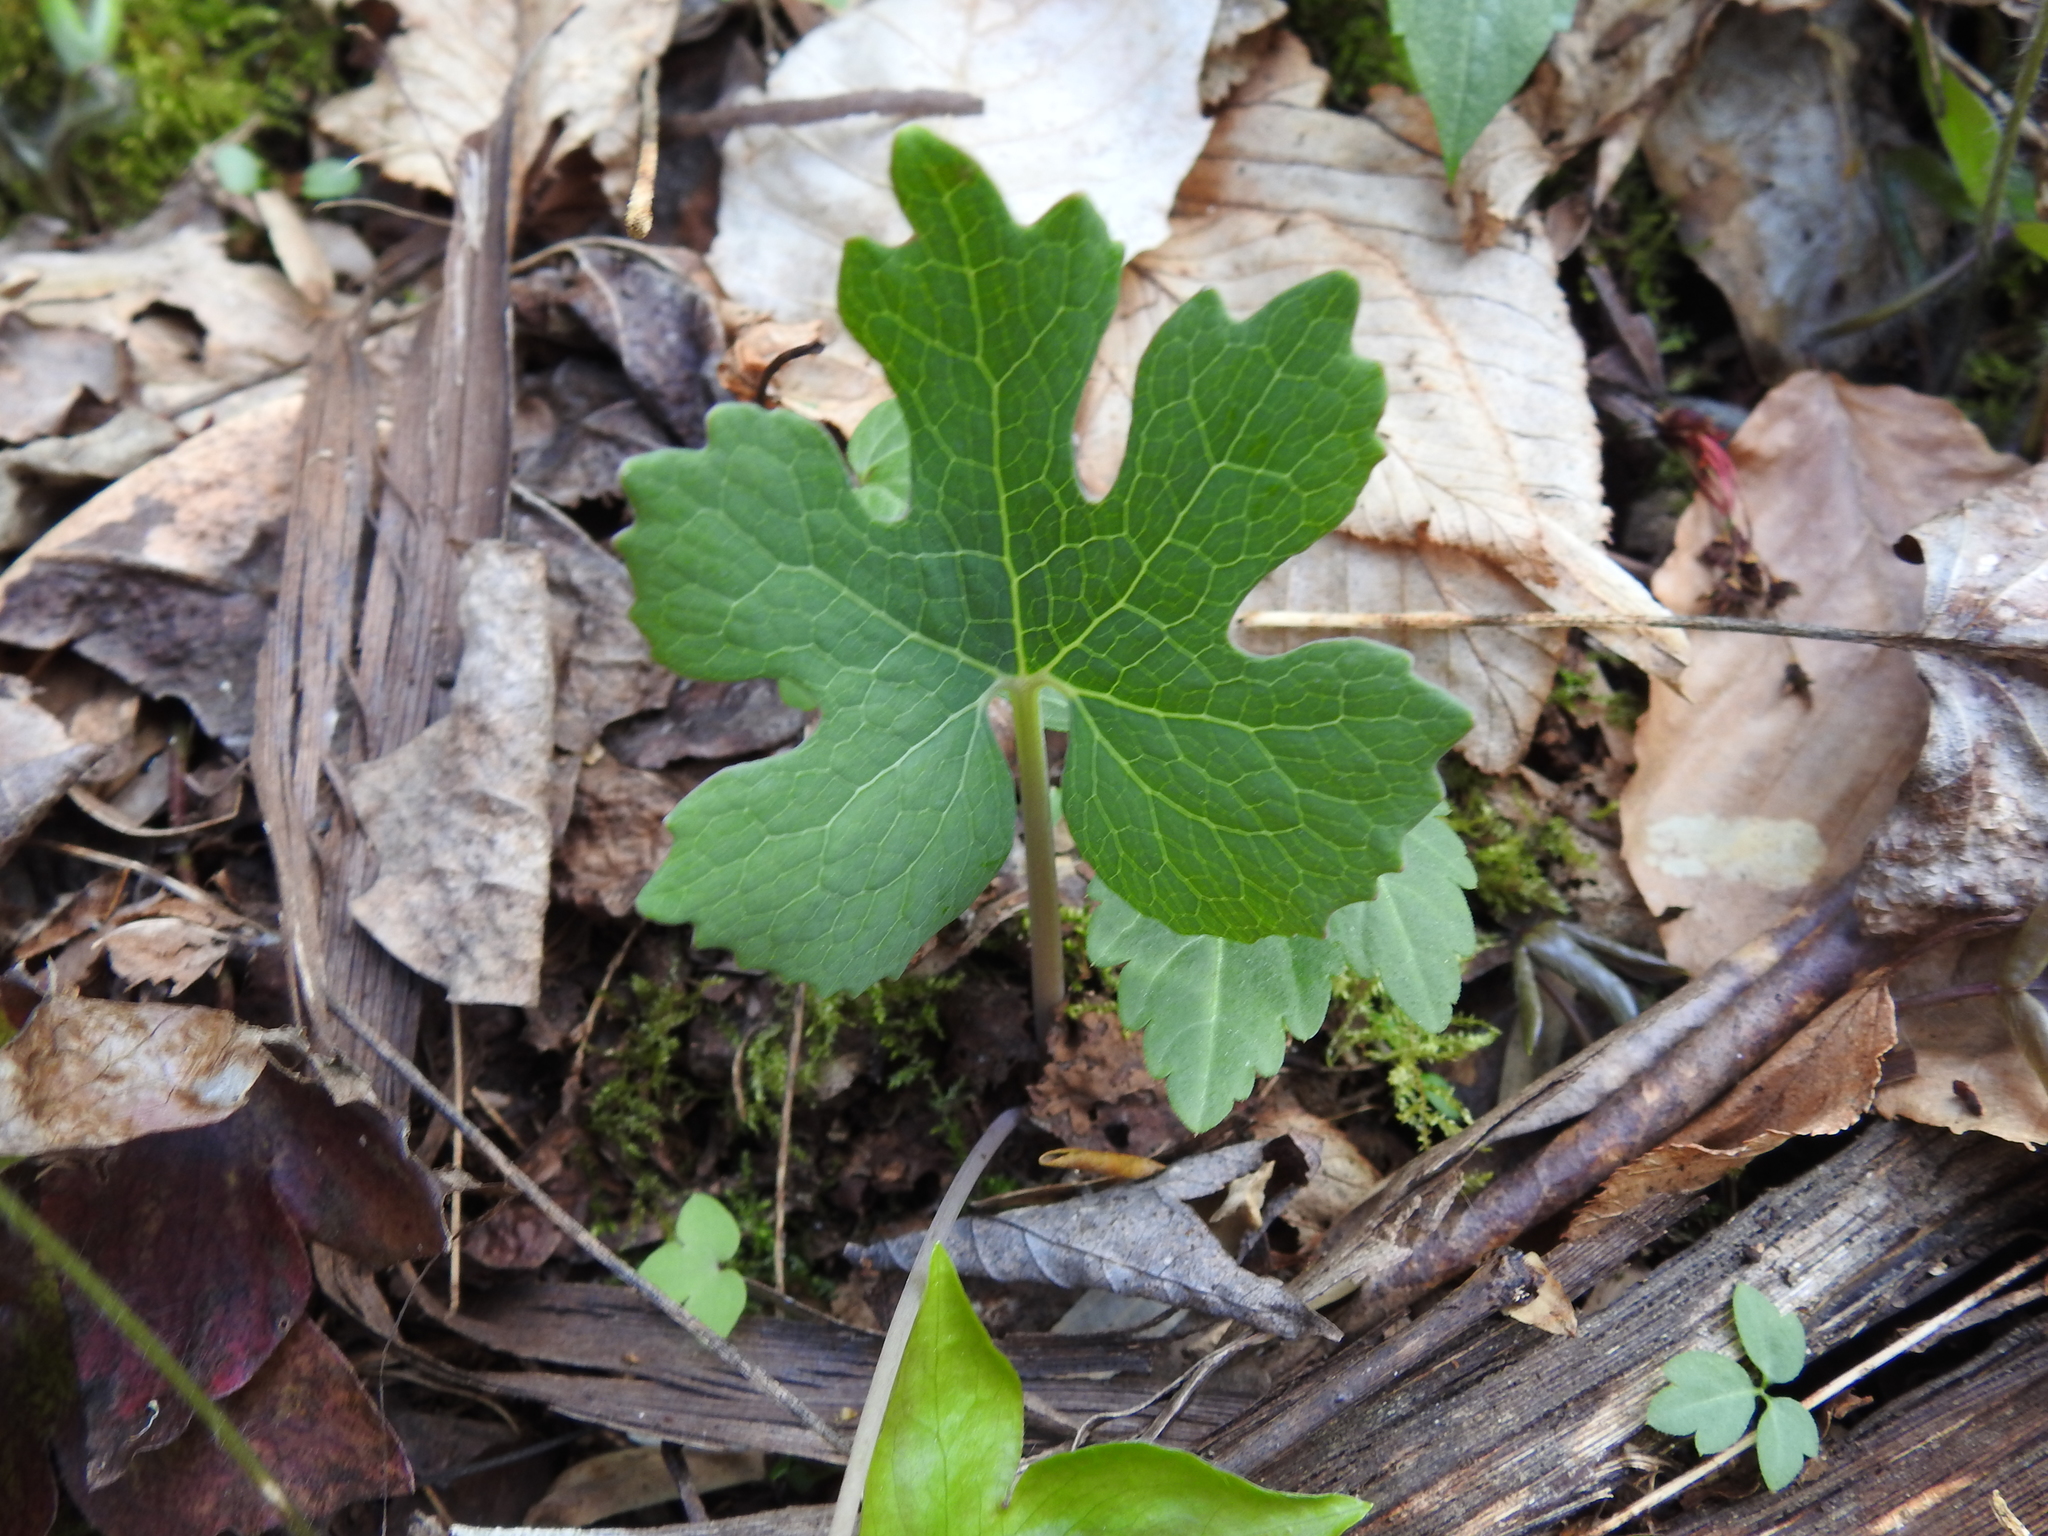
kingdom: Plantae
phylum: Tracheophyta
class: Magnoliopsida
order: Ranunculales
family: Papaveraceae
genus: Sanguinaria
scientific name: Sanguinaria canadensis
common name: Bloodroot
